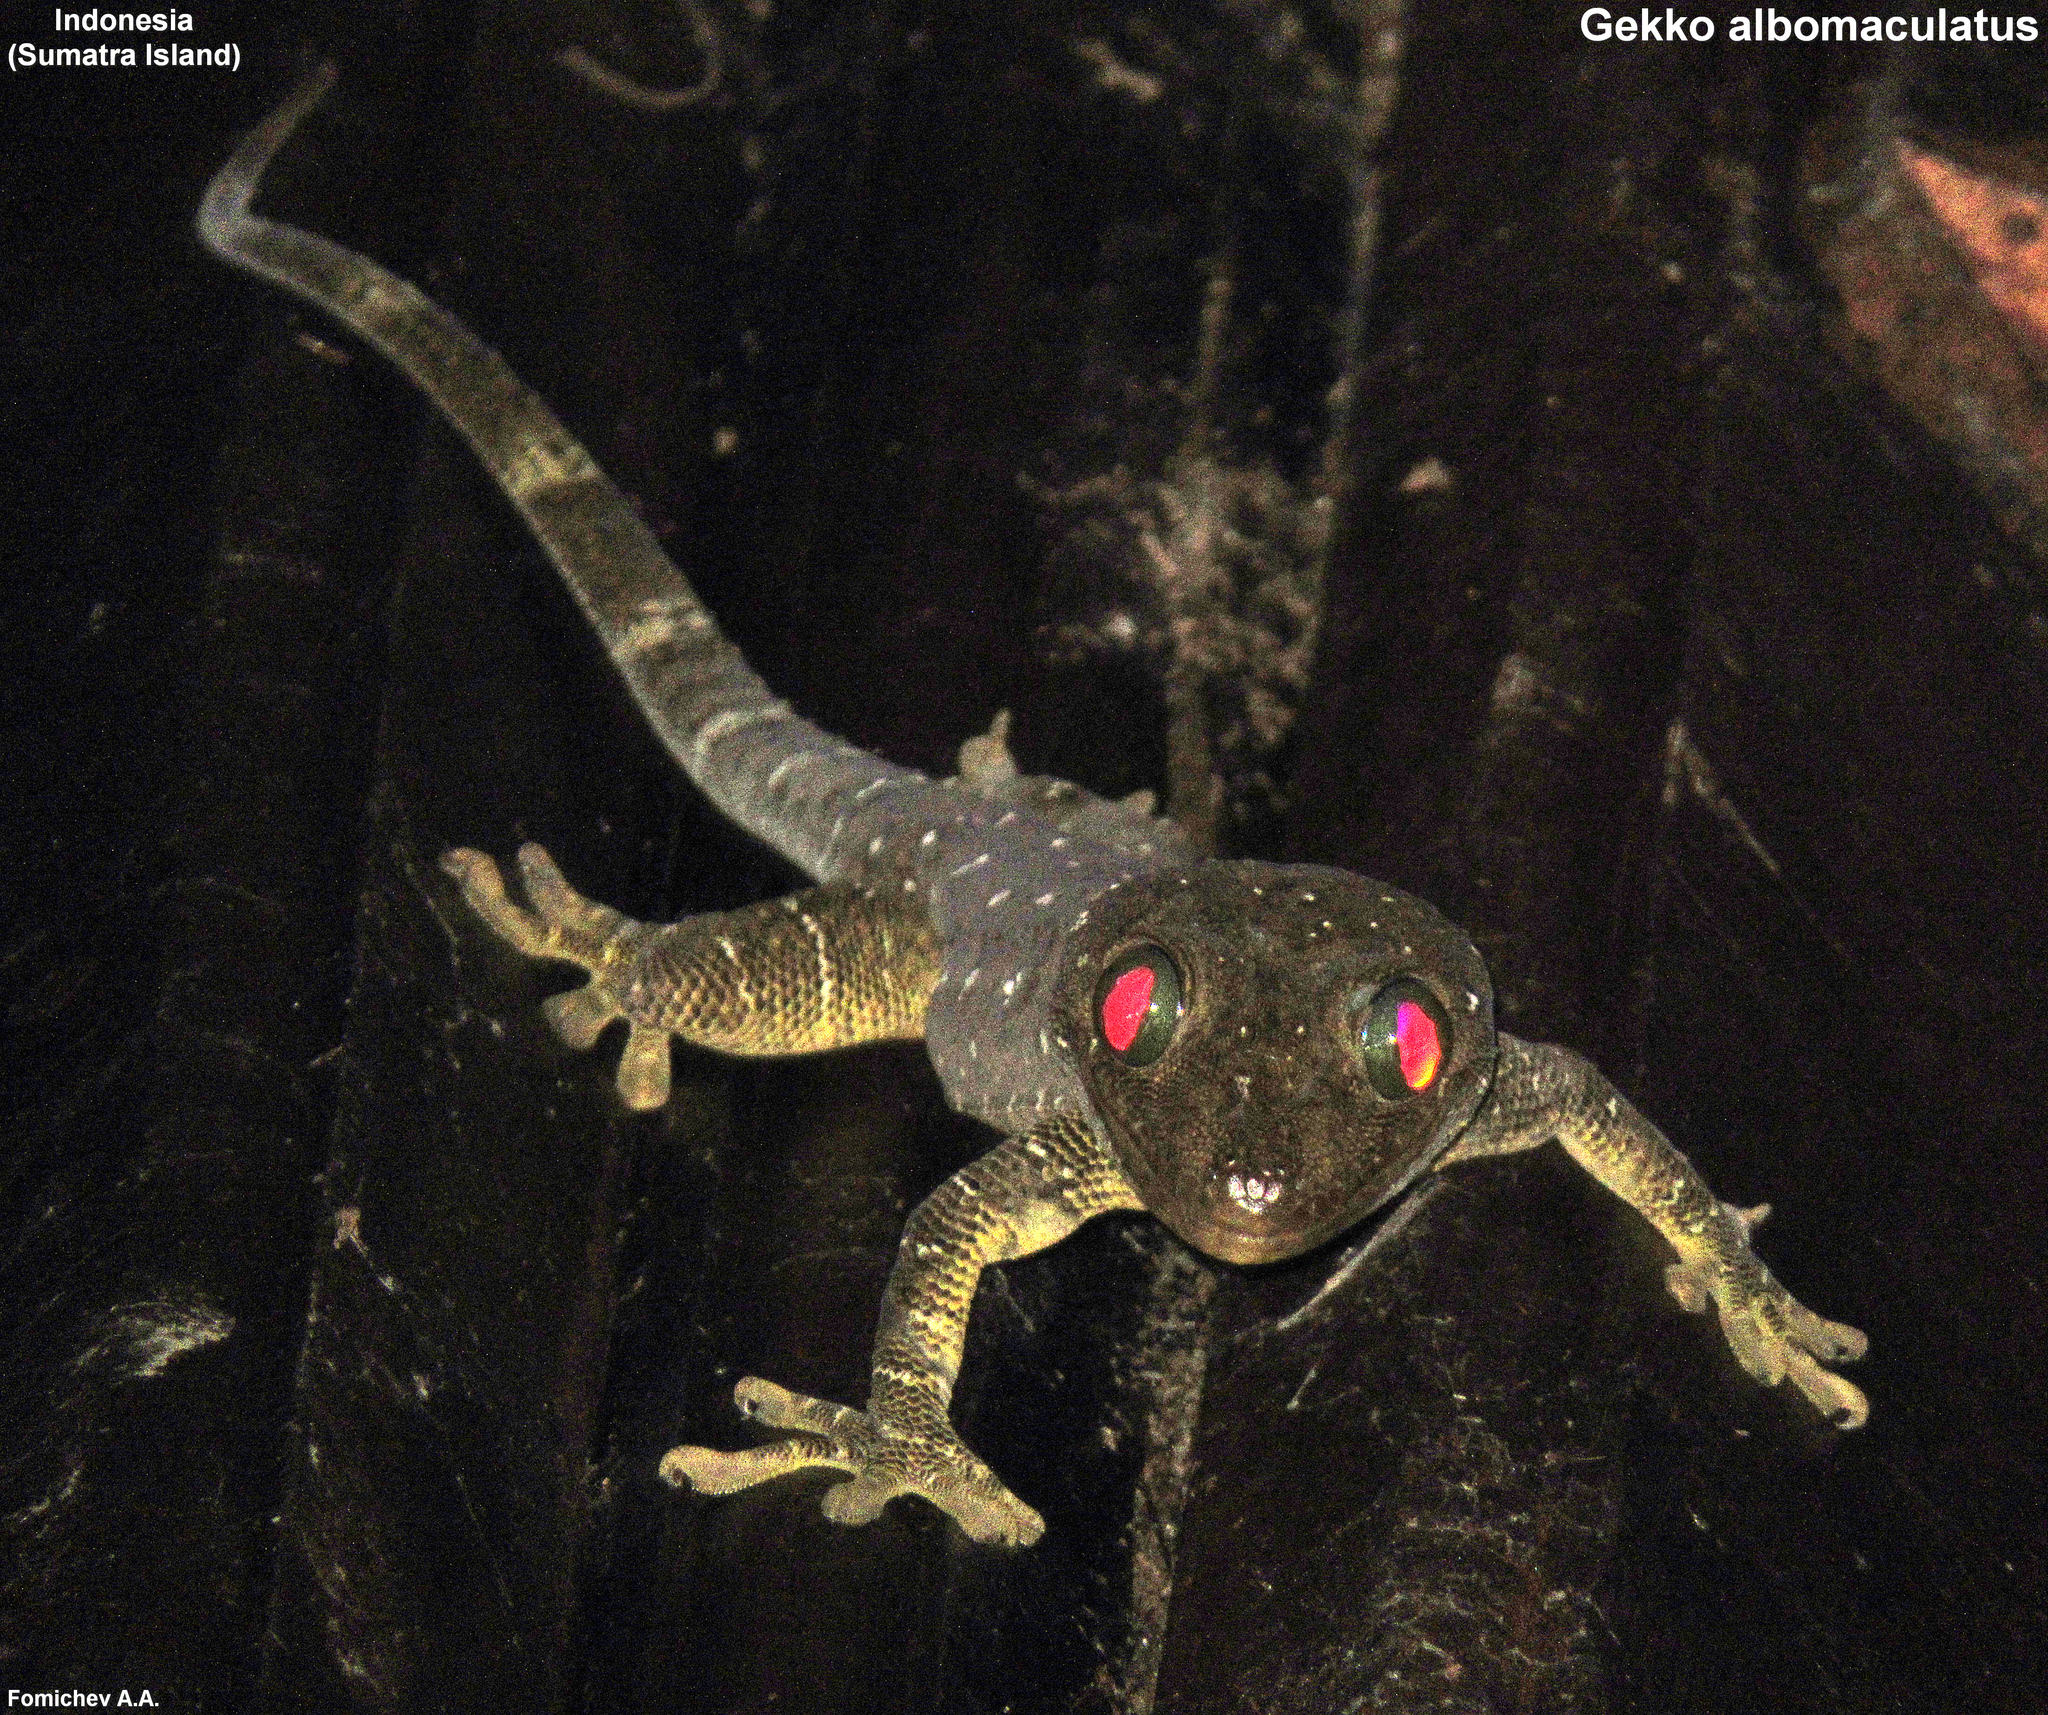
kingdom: Animalia
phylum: Chordata
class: Squamata
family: Gekkonidae
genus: Gekko
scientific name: Gekko smithii
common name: Large forest gecko
